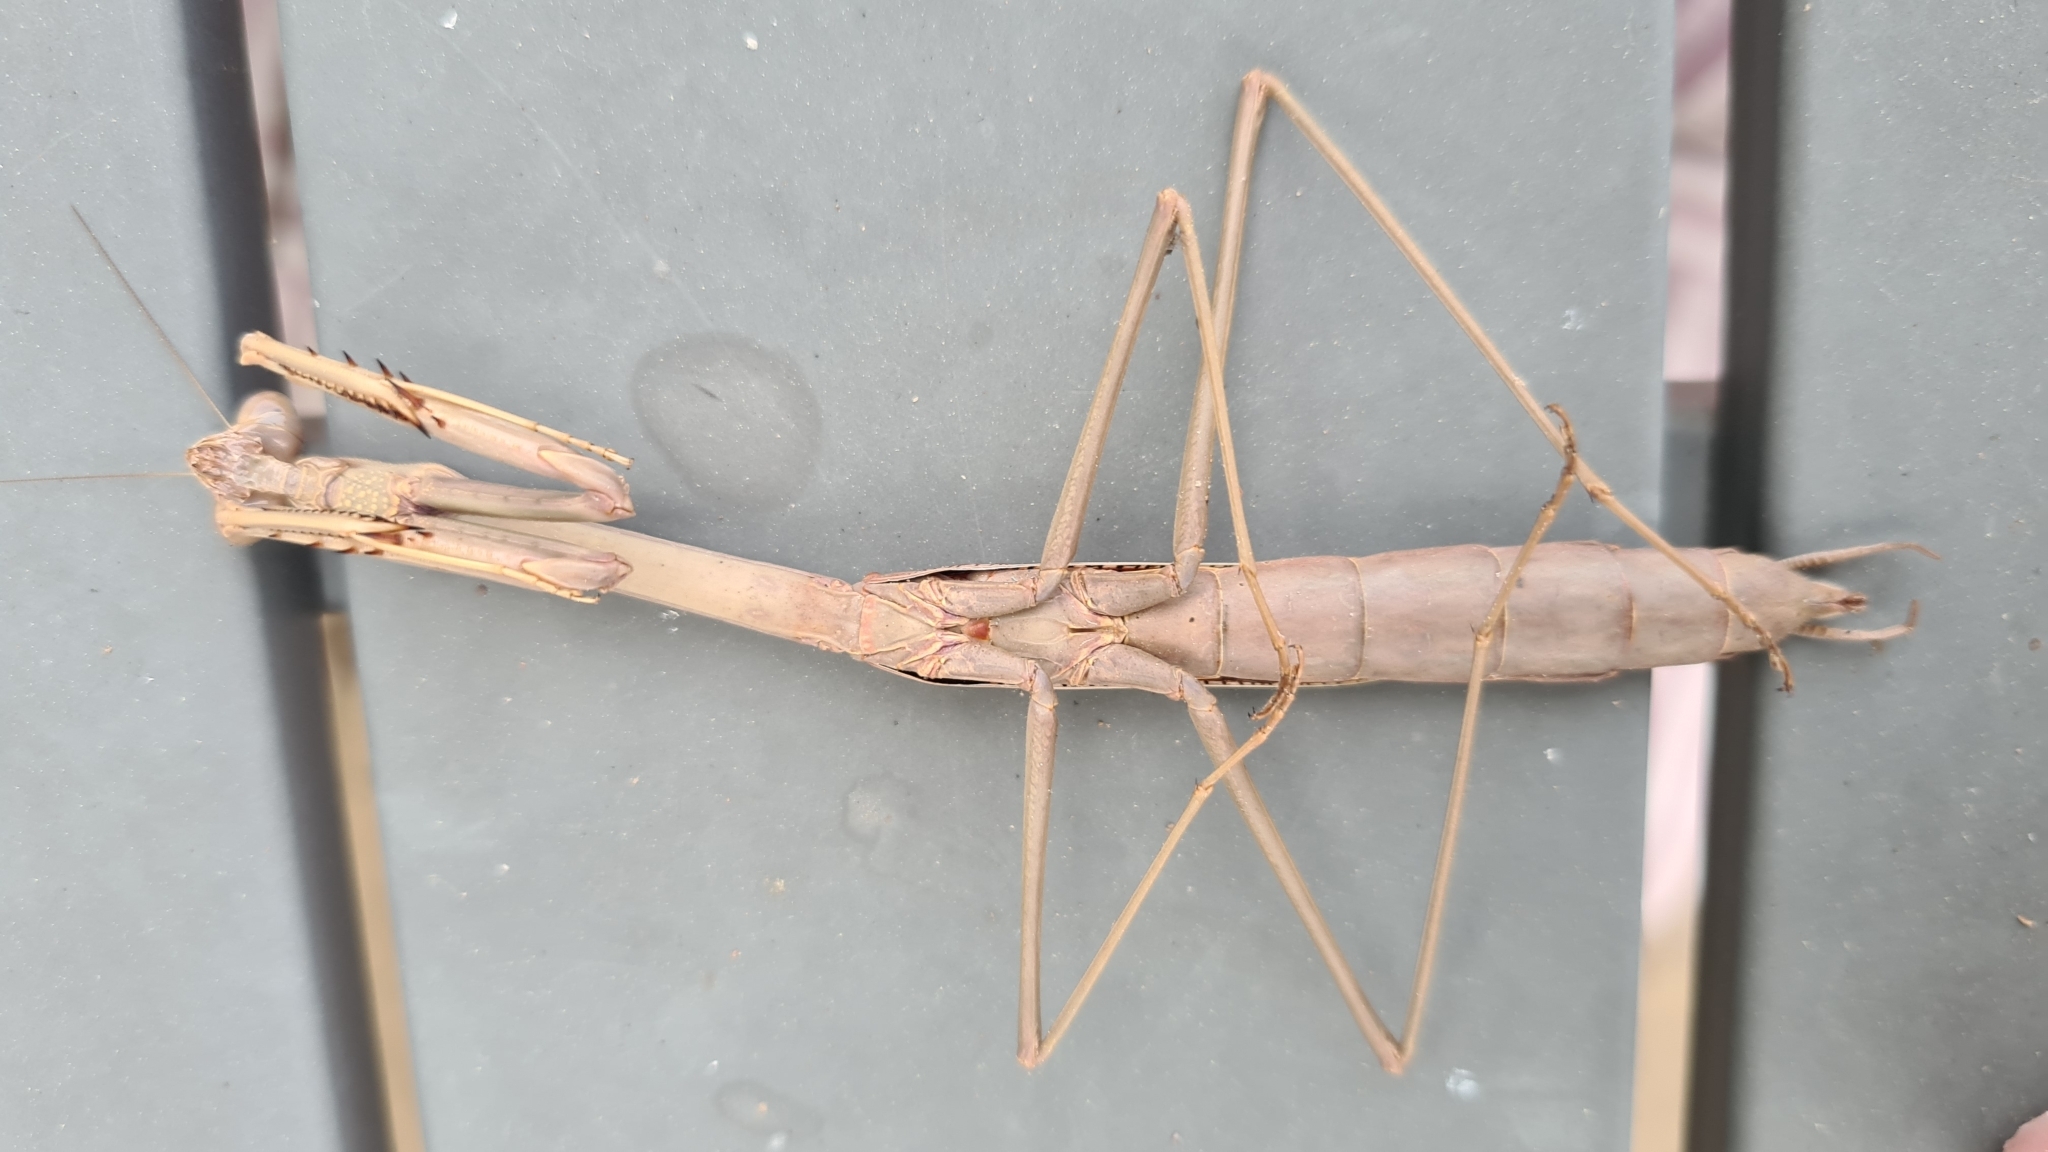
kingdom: Animalia
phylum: Arthropoda
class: Insecta
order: Mantodea
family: Mantidae
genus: Archimantis
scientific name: Archimantis latistyla
